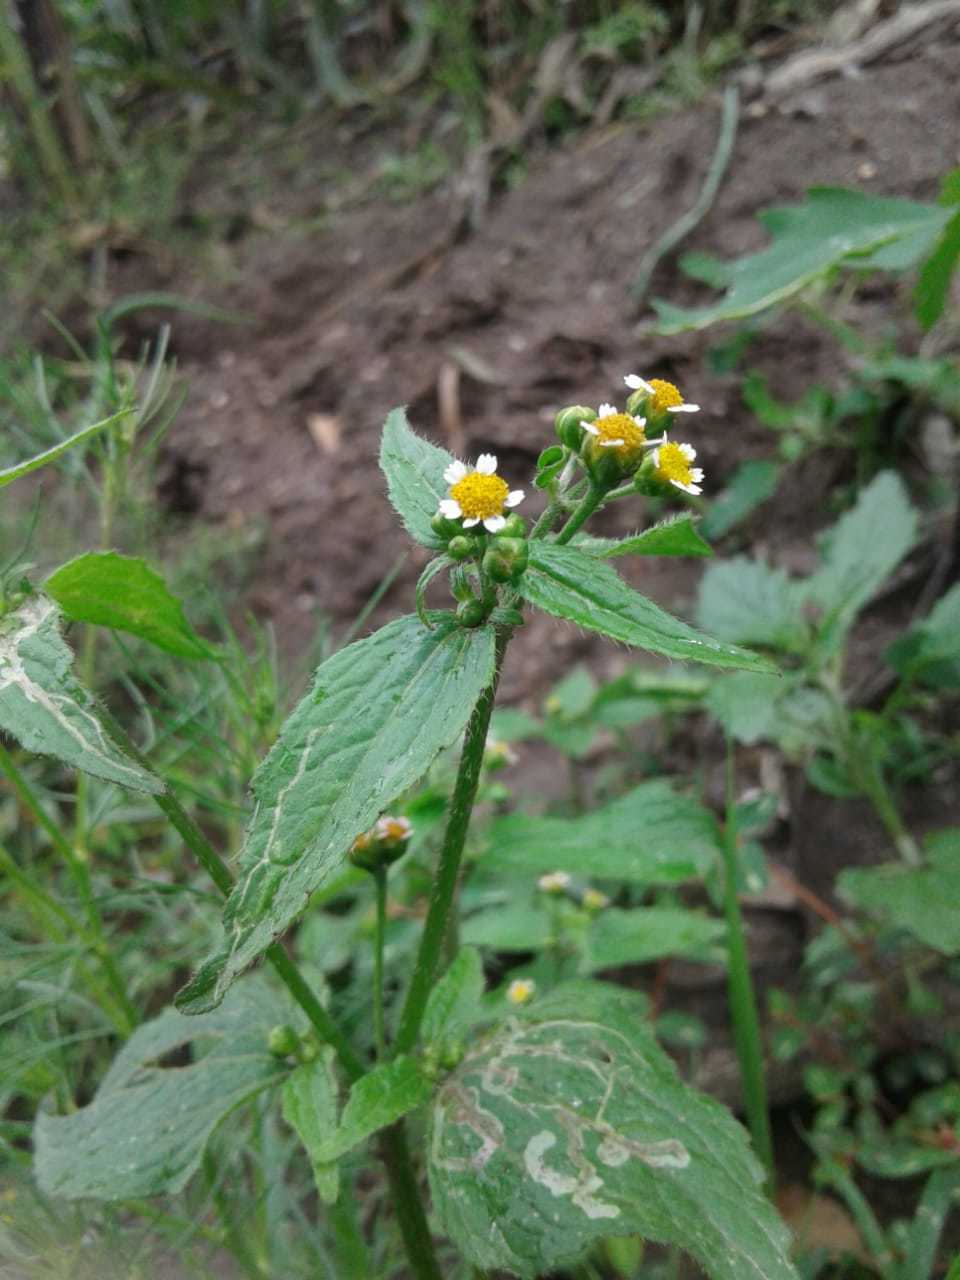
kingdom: Plantae
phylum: Tracheophyta
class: Magnoliopsida
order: Asterales
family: Asteraceae
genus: Galinsoga
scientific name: Galinsoga parviflora
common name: Gallant soldier
